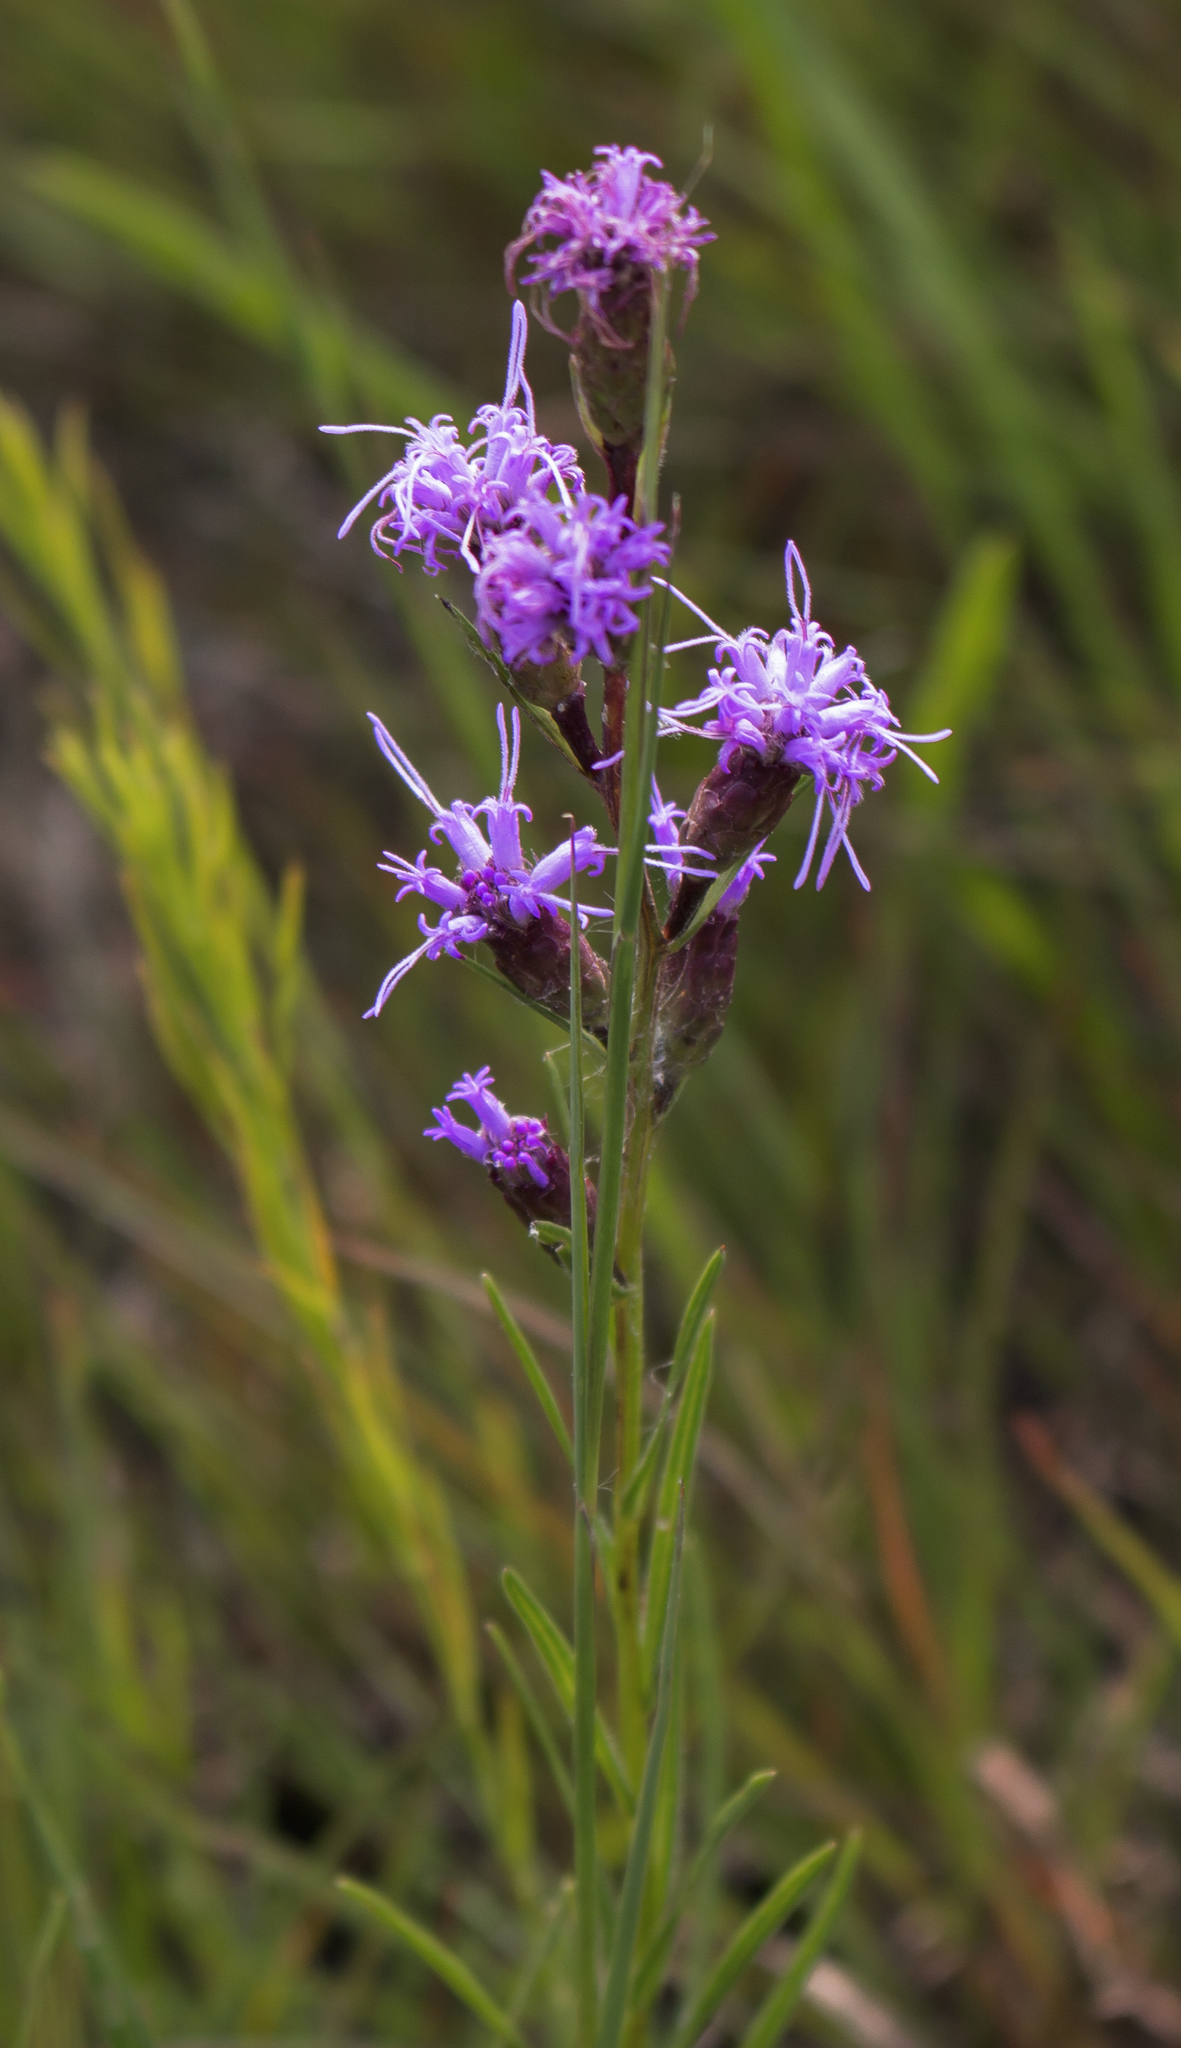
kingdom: Plantae
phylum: Tracheophyta
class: Magnoliopsida
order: Asterales
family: Asteraceae
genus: Liatris
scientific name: Liatris cylindracea
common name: Few-head blazingstar
